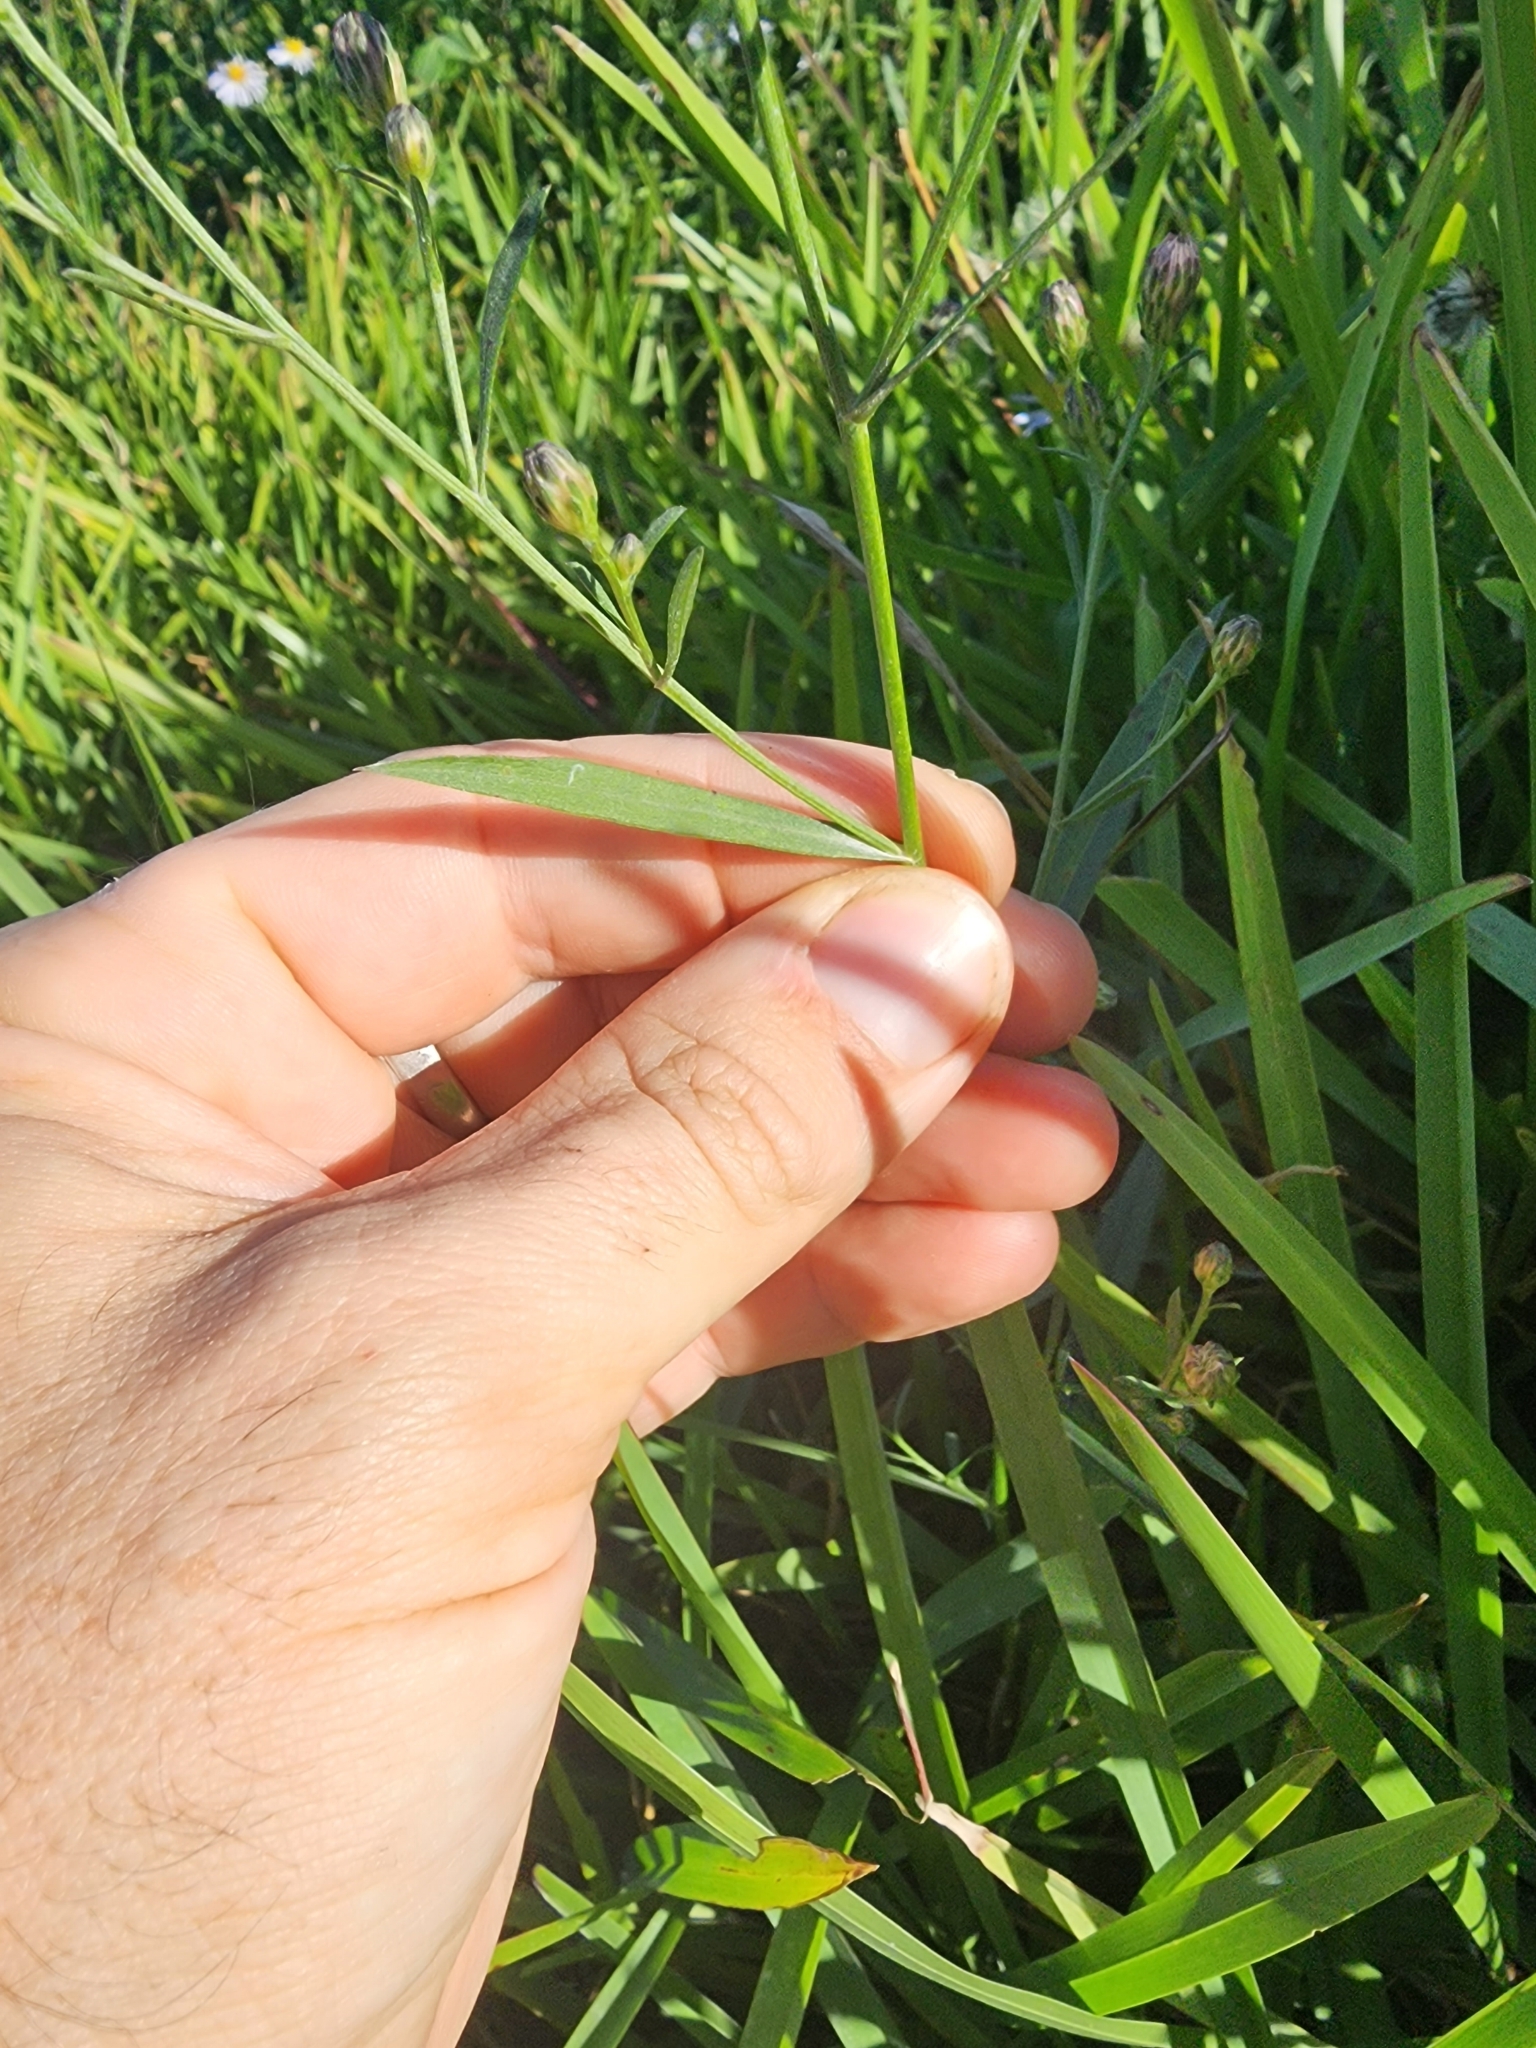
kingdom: Plantae
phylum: Tracheophyta
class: Magnoliopsida
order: Asterales
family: Asteraceae
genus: Symphyotrichum
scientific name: Symphyotrichum simmondsii
